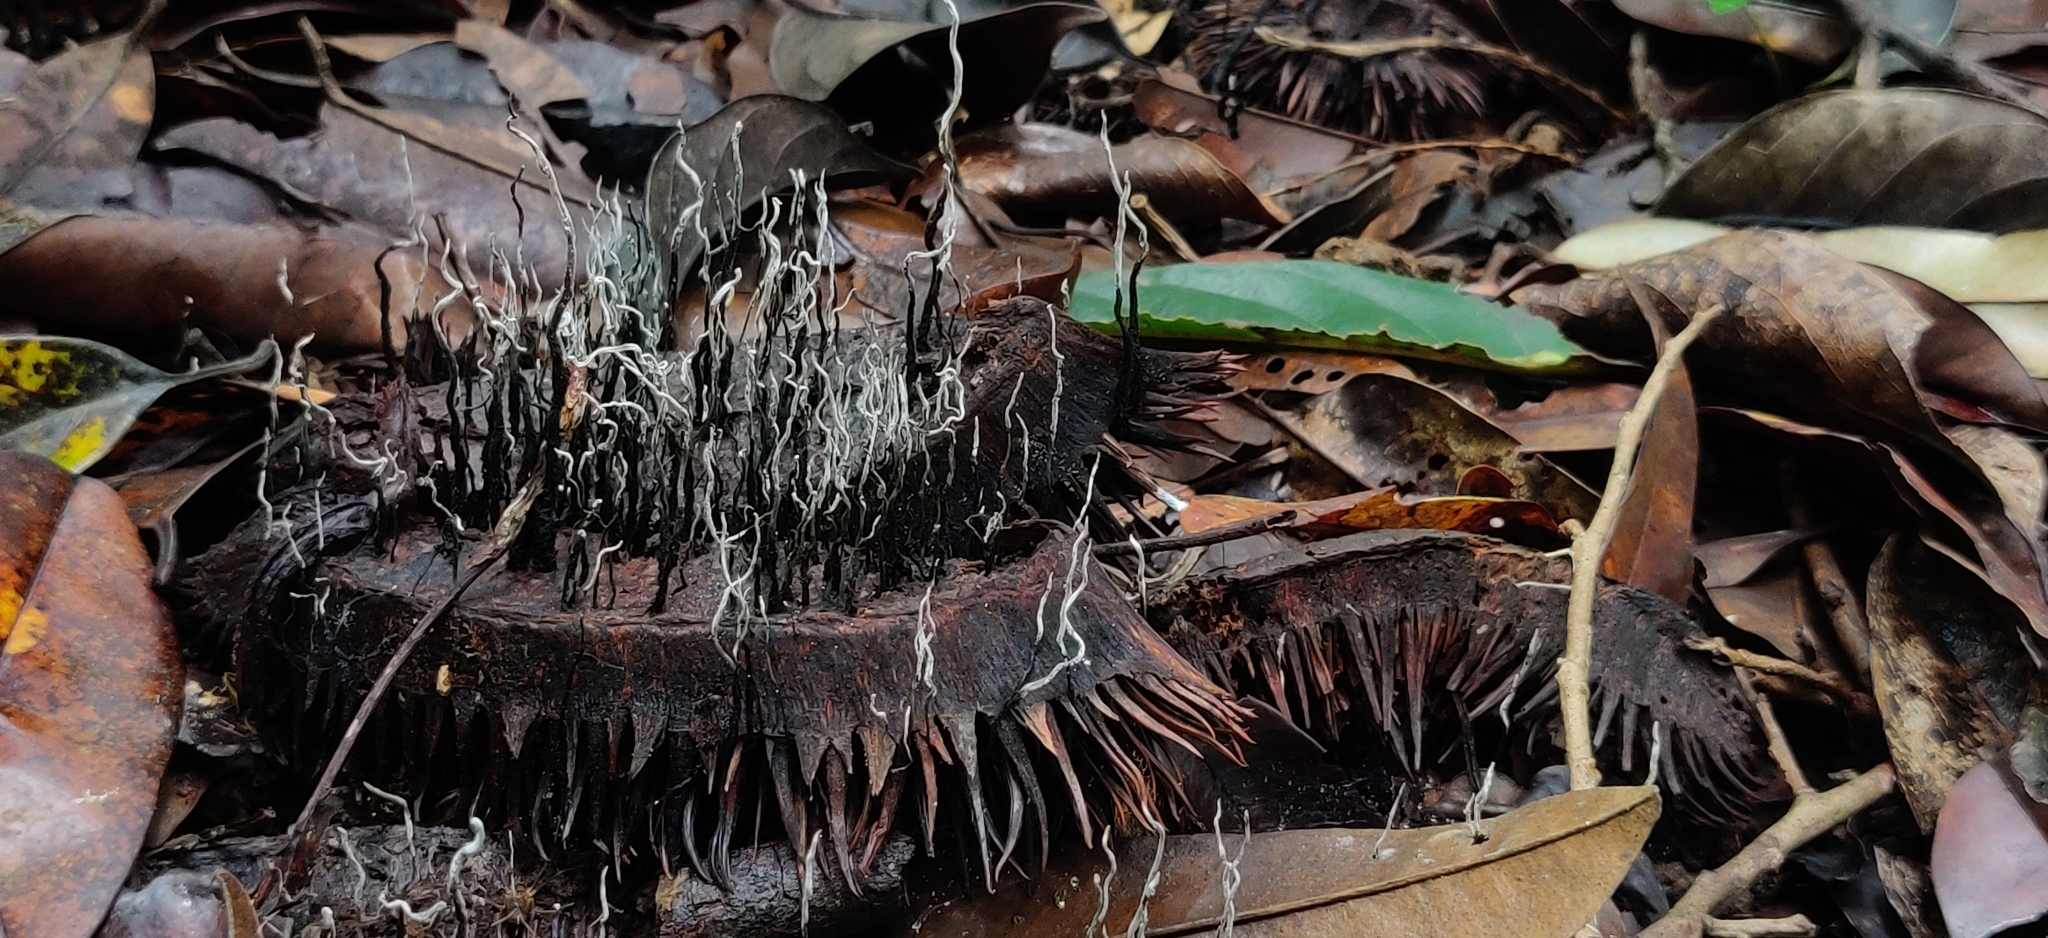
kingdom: Fungi
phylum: Ascomycota
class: Sordariomycetes
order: Xylariales
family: Xylariaceae
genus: Xylaria
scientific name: Xylaria culleniae
